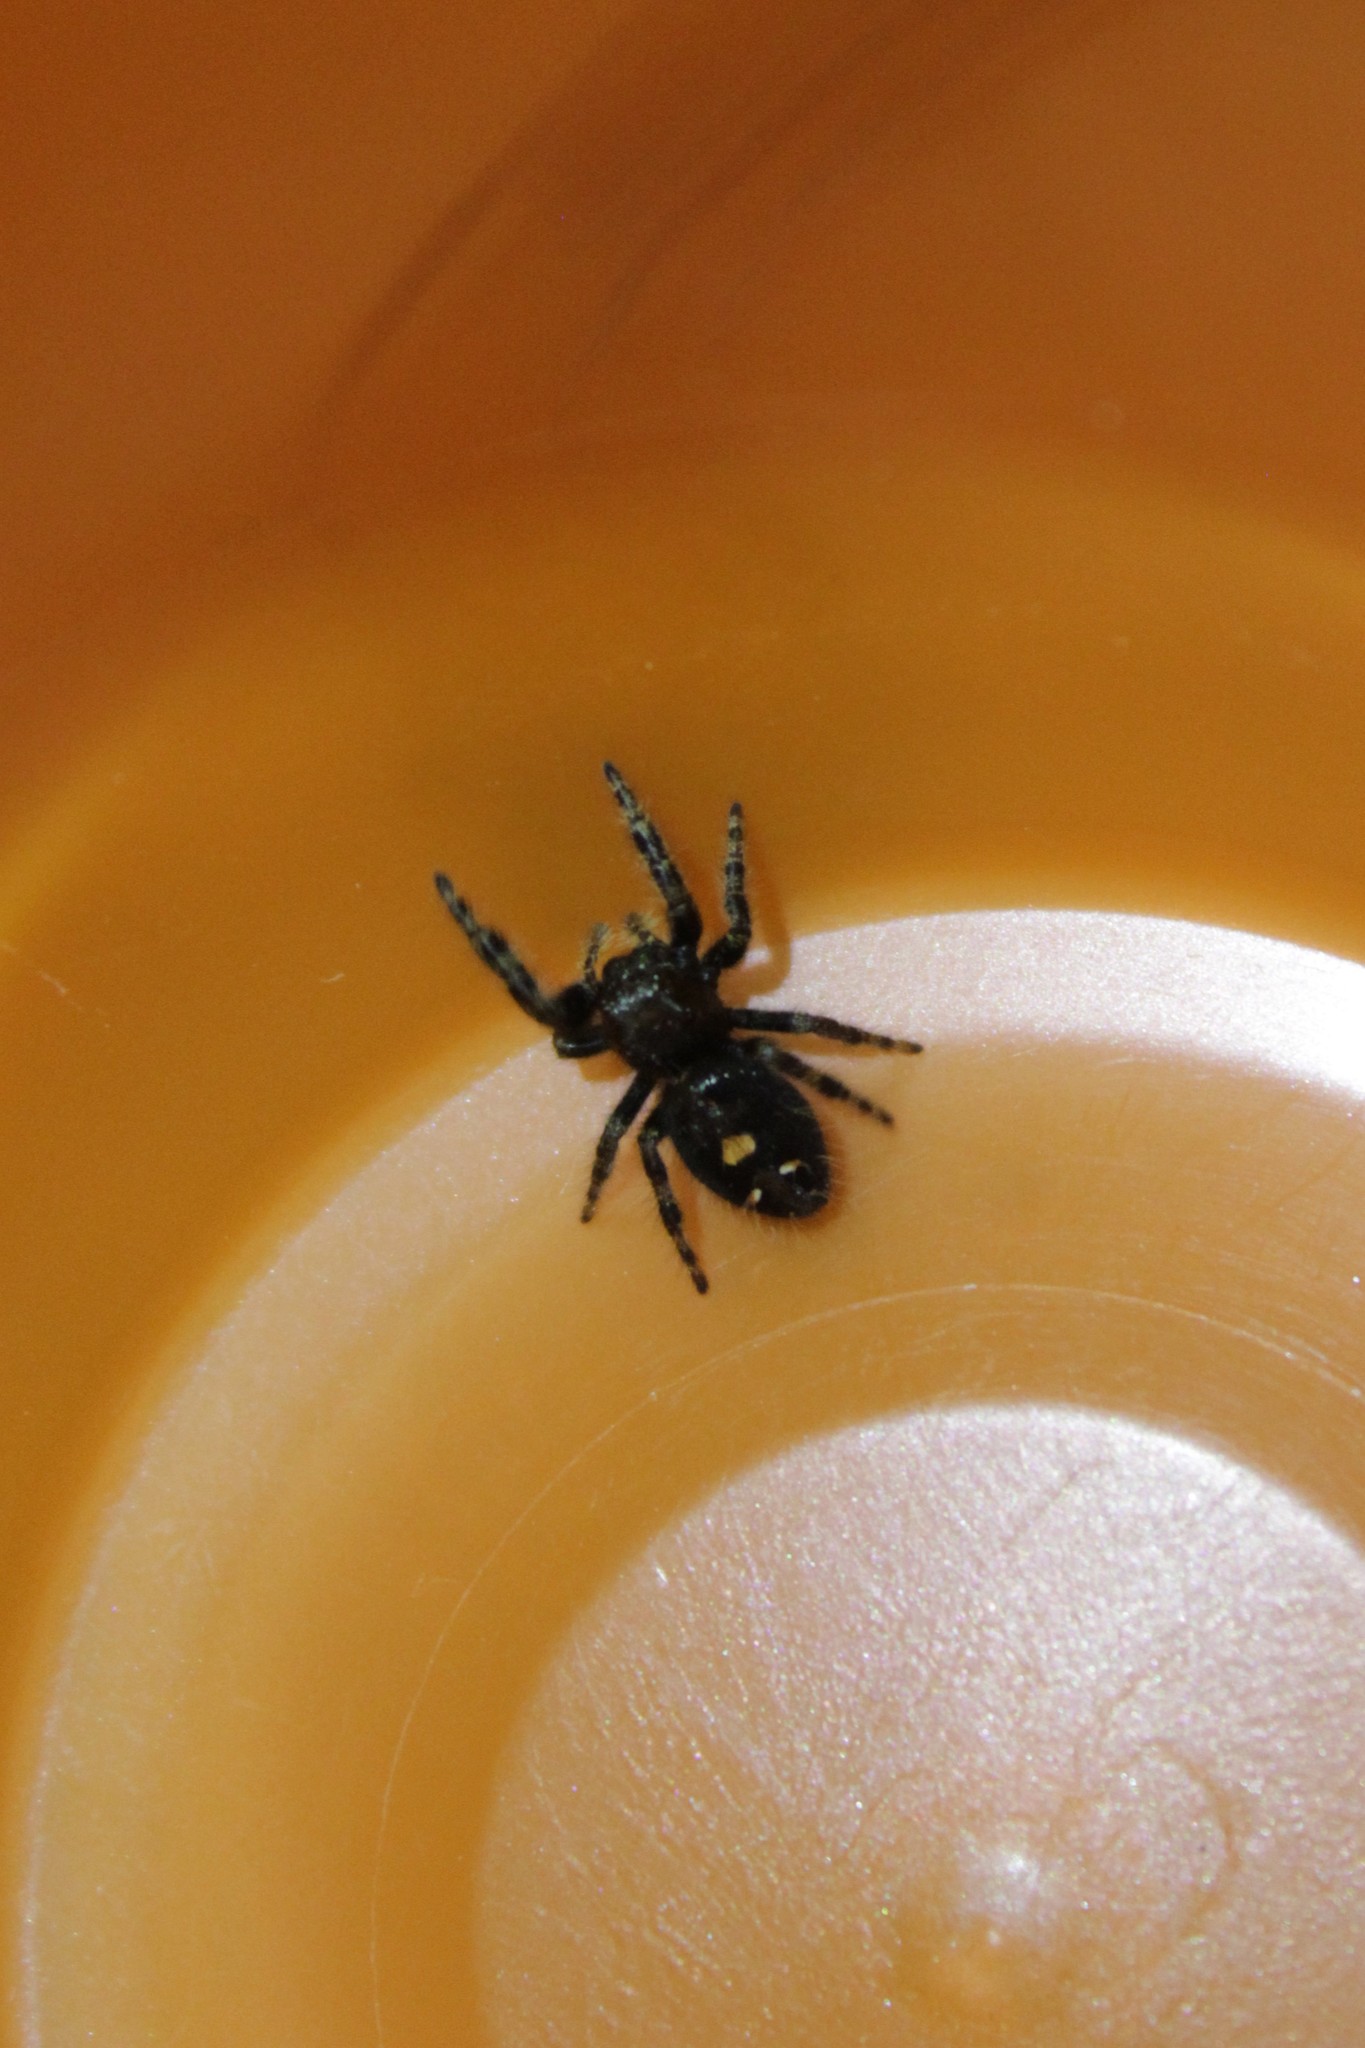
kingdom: Animalia
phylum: Arthropoda
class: Arachnida
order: Araneae
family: Salticidae
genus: Phidippus
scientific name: Phidippus audax
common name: Bold jumper
